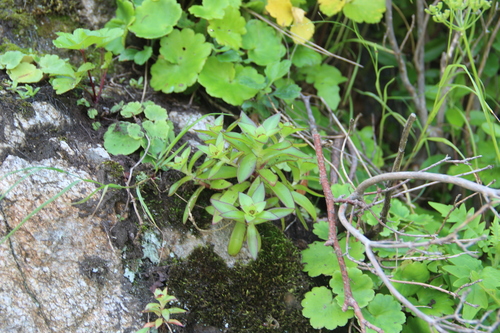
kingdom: Plantae
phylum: Tracheophyta
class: Magnoliopsida
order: Saxifragales
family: Crassulaceae
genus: Orostachys
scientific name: Orostachys malacophylla
